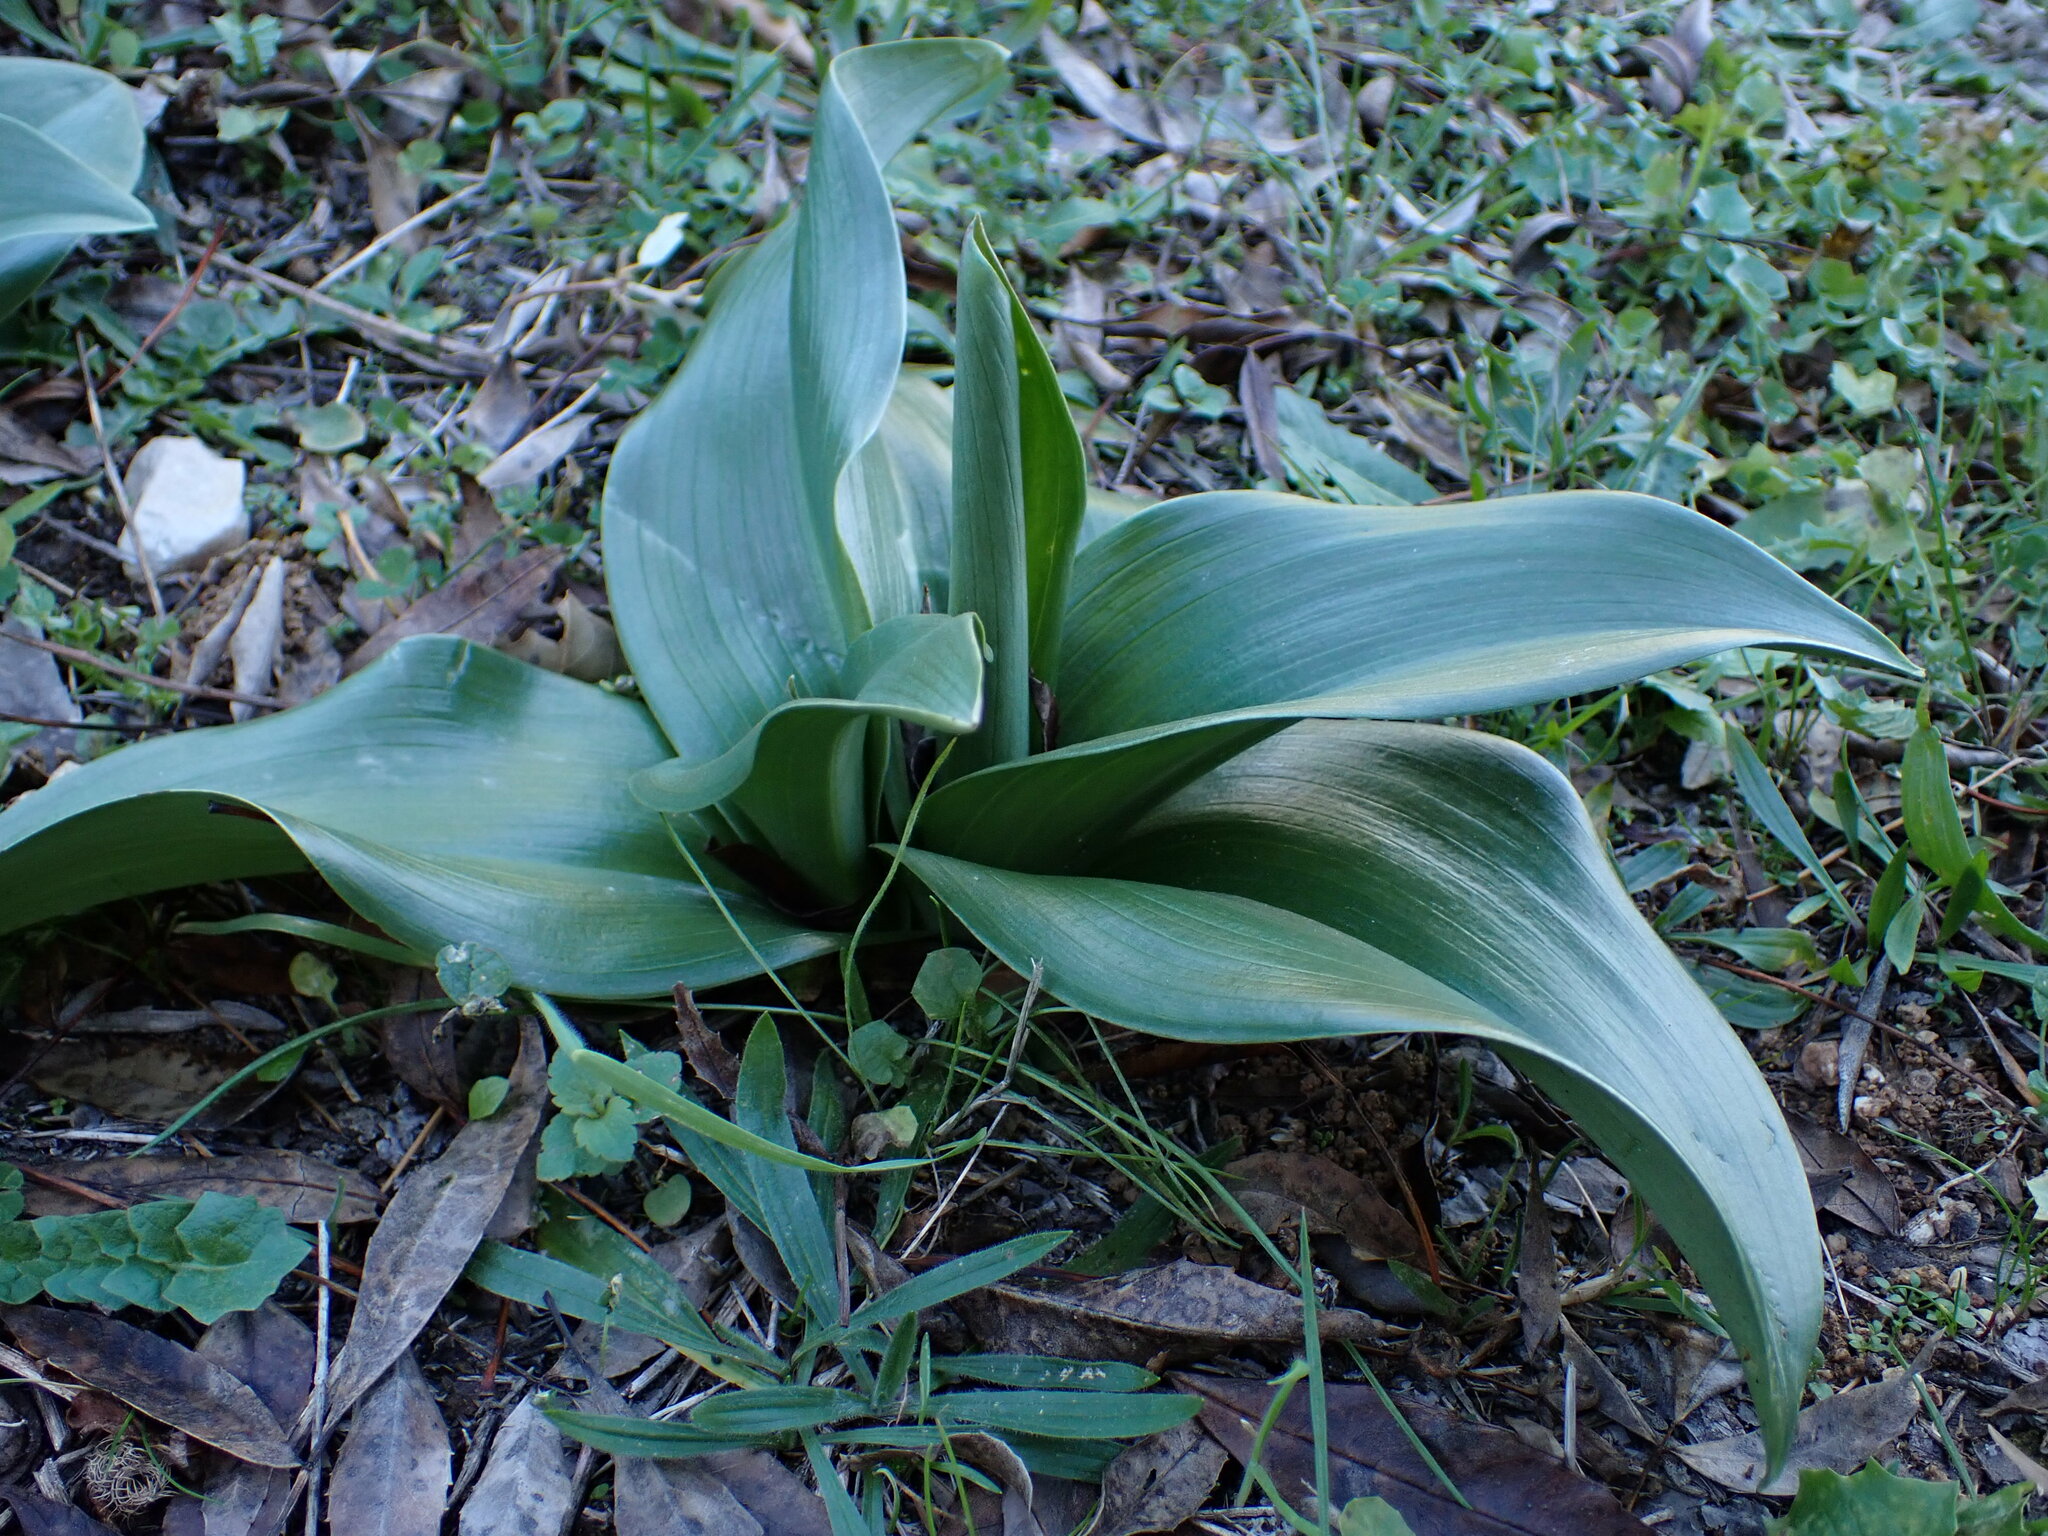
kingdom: Plantae
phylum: Tracheophyta
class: Liliopsida
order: Asparagales
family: Orchidaceae
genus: Himantoglossum
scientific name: Himantoglossum robertianum
